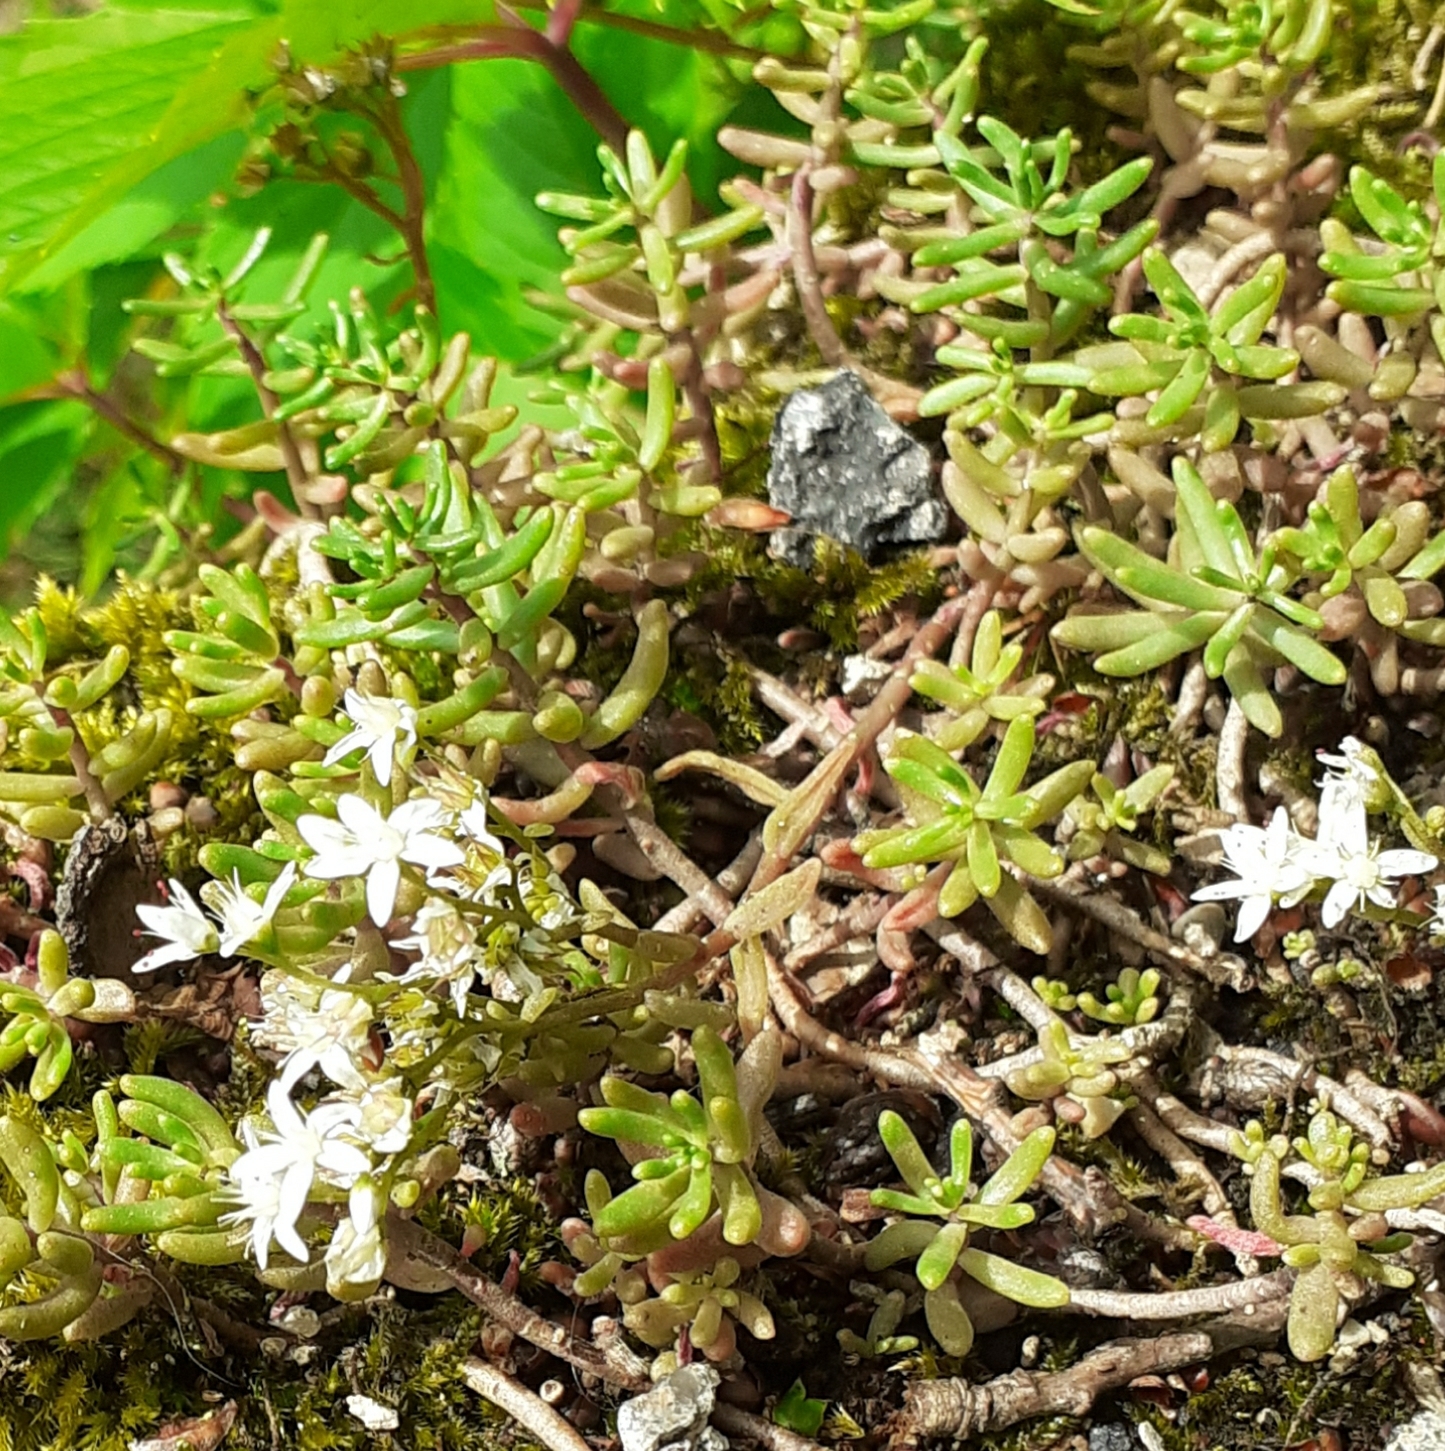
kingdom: Plantae
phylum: Tracheophyta
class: Magnoliopsida
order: Saxifragales
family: Crassulaceae
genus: Sedum
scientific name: Sedum album
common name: White stonecrop
